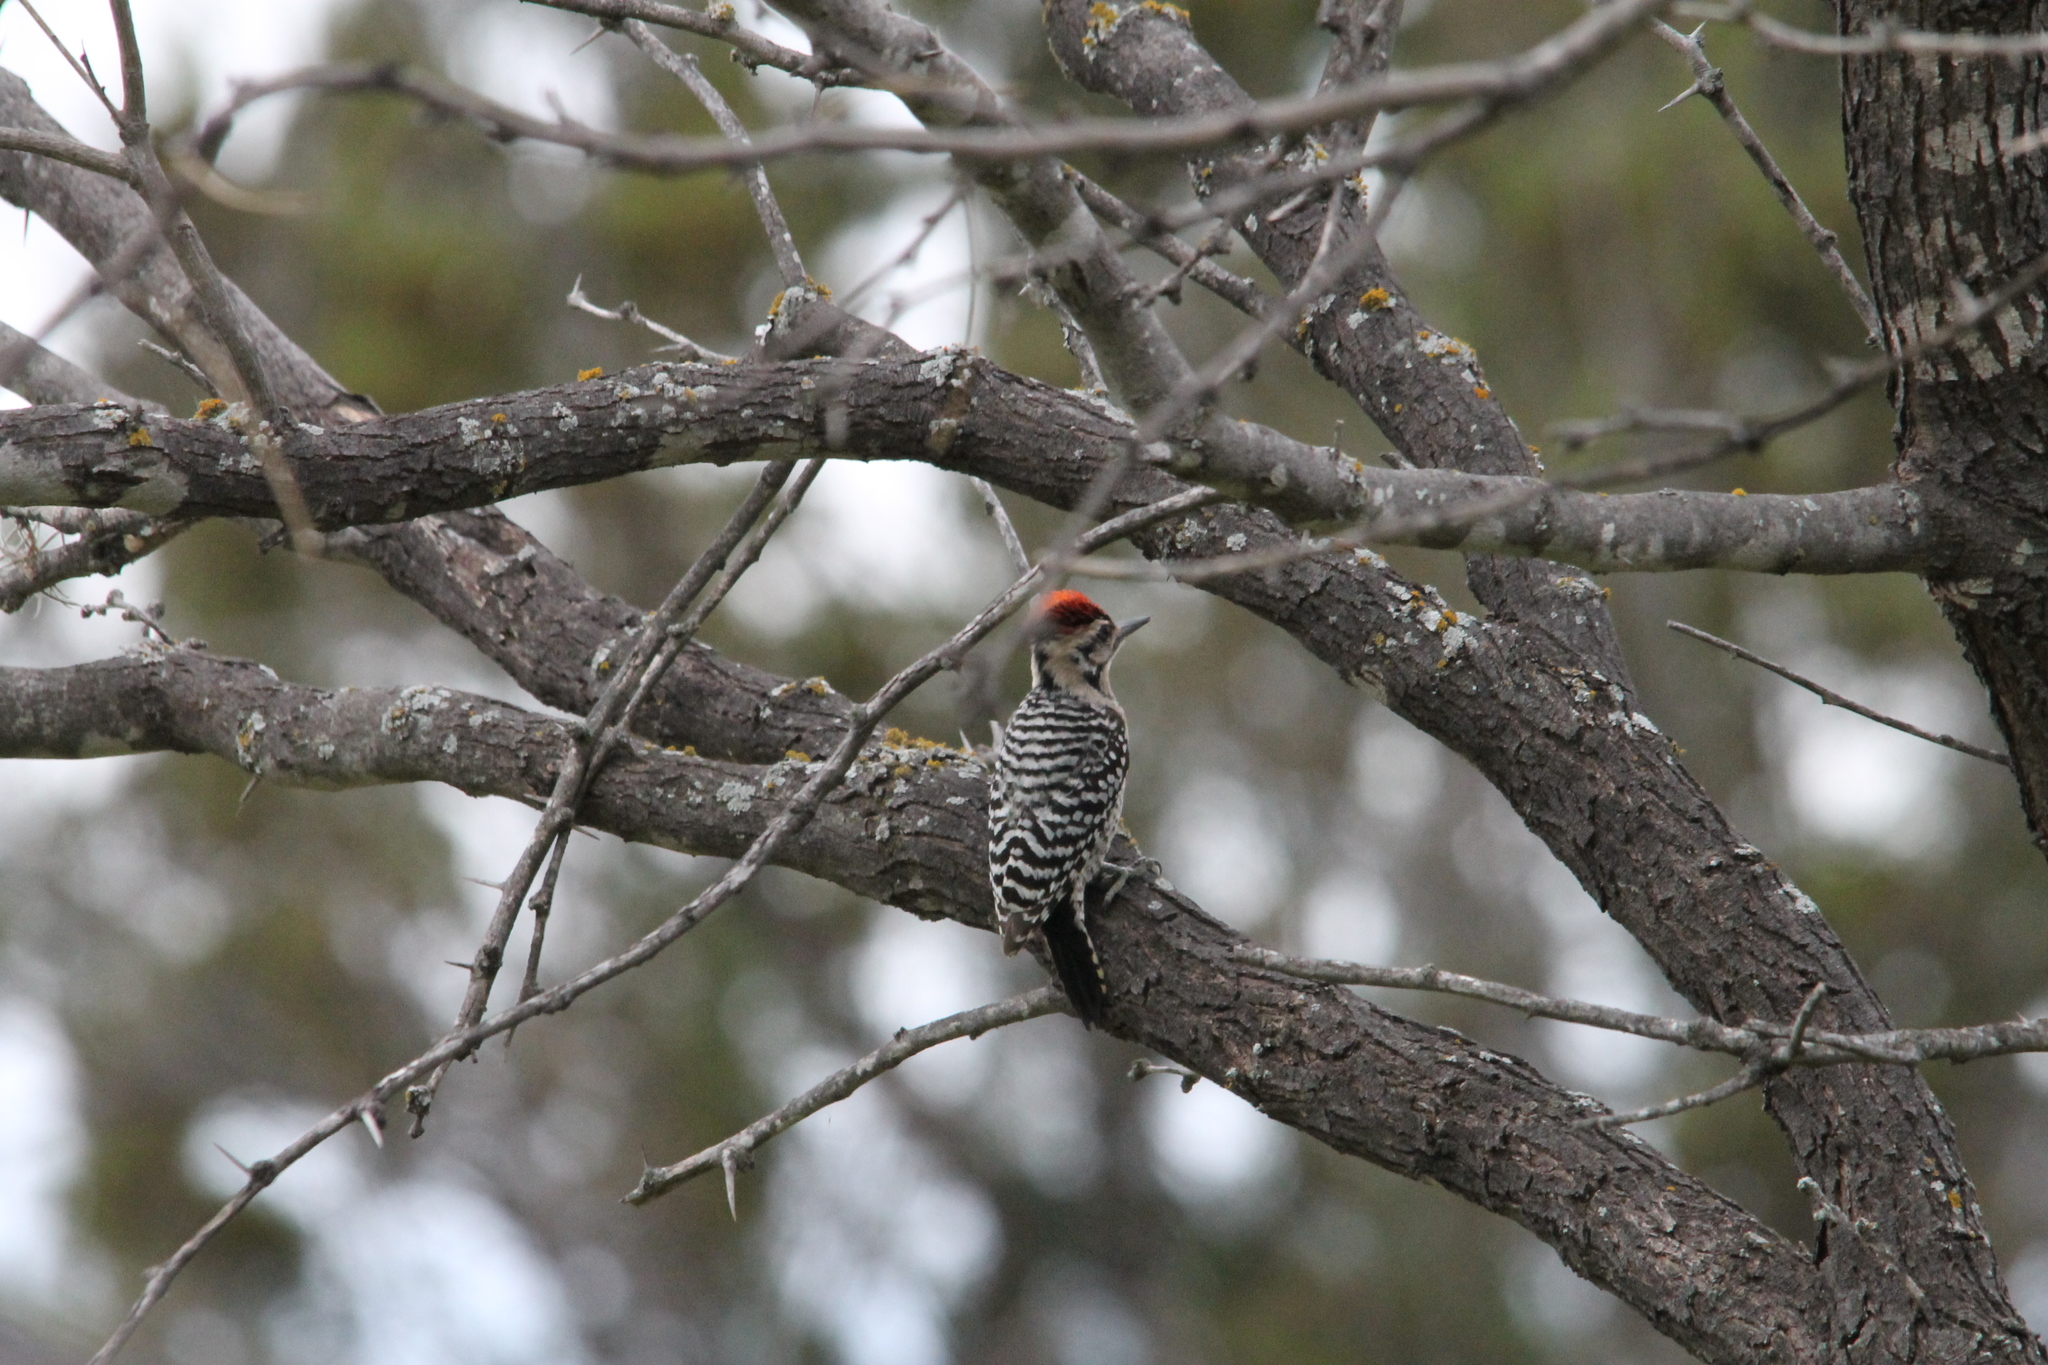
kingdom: Animalia
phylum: Chordata
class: Aves
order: Piciformes
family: Picidae
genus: Dryobates
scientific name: Dryobates scalaris
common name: Ladder-backed woodpecker
